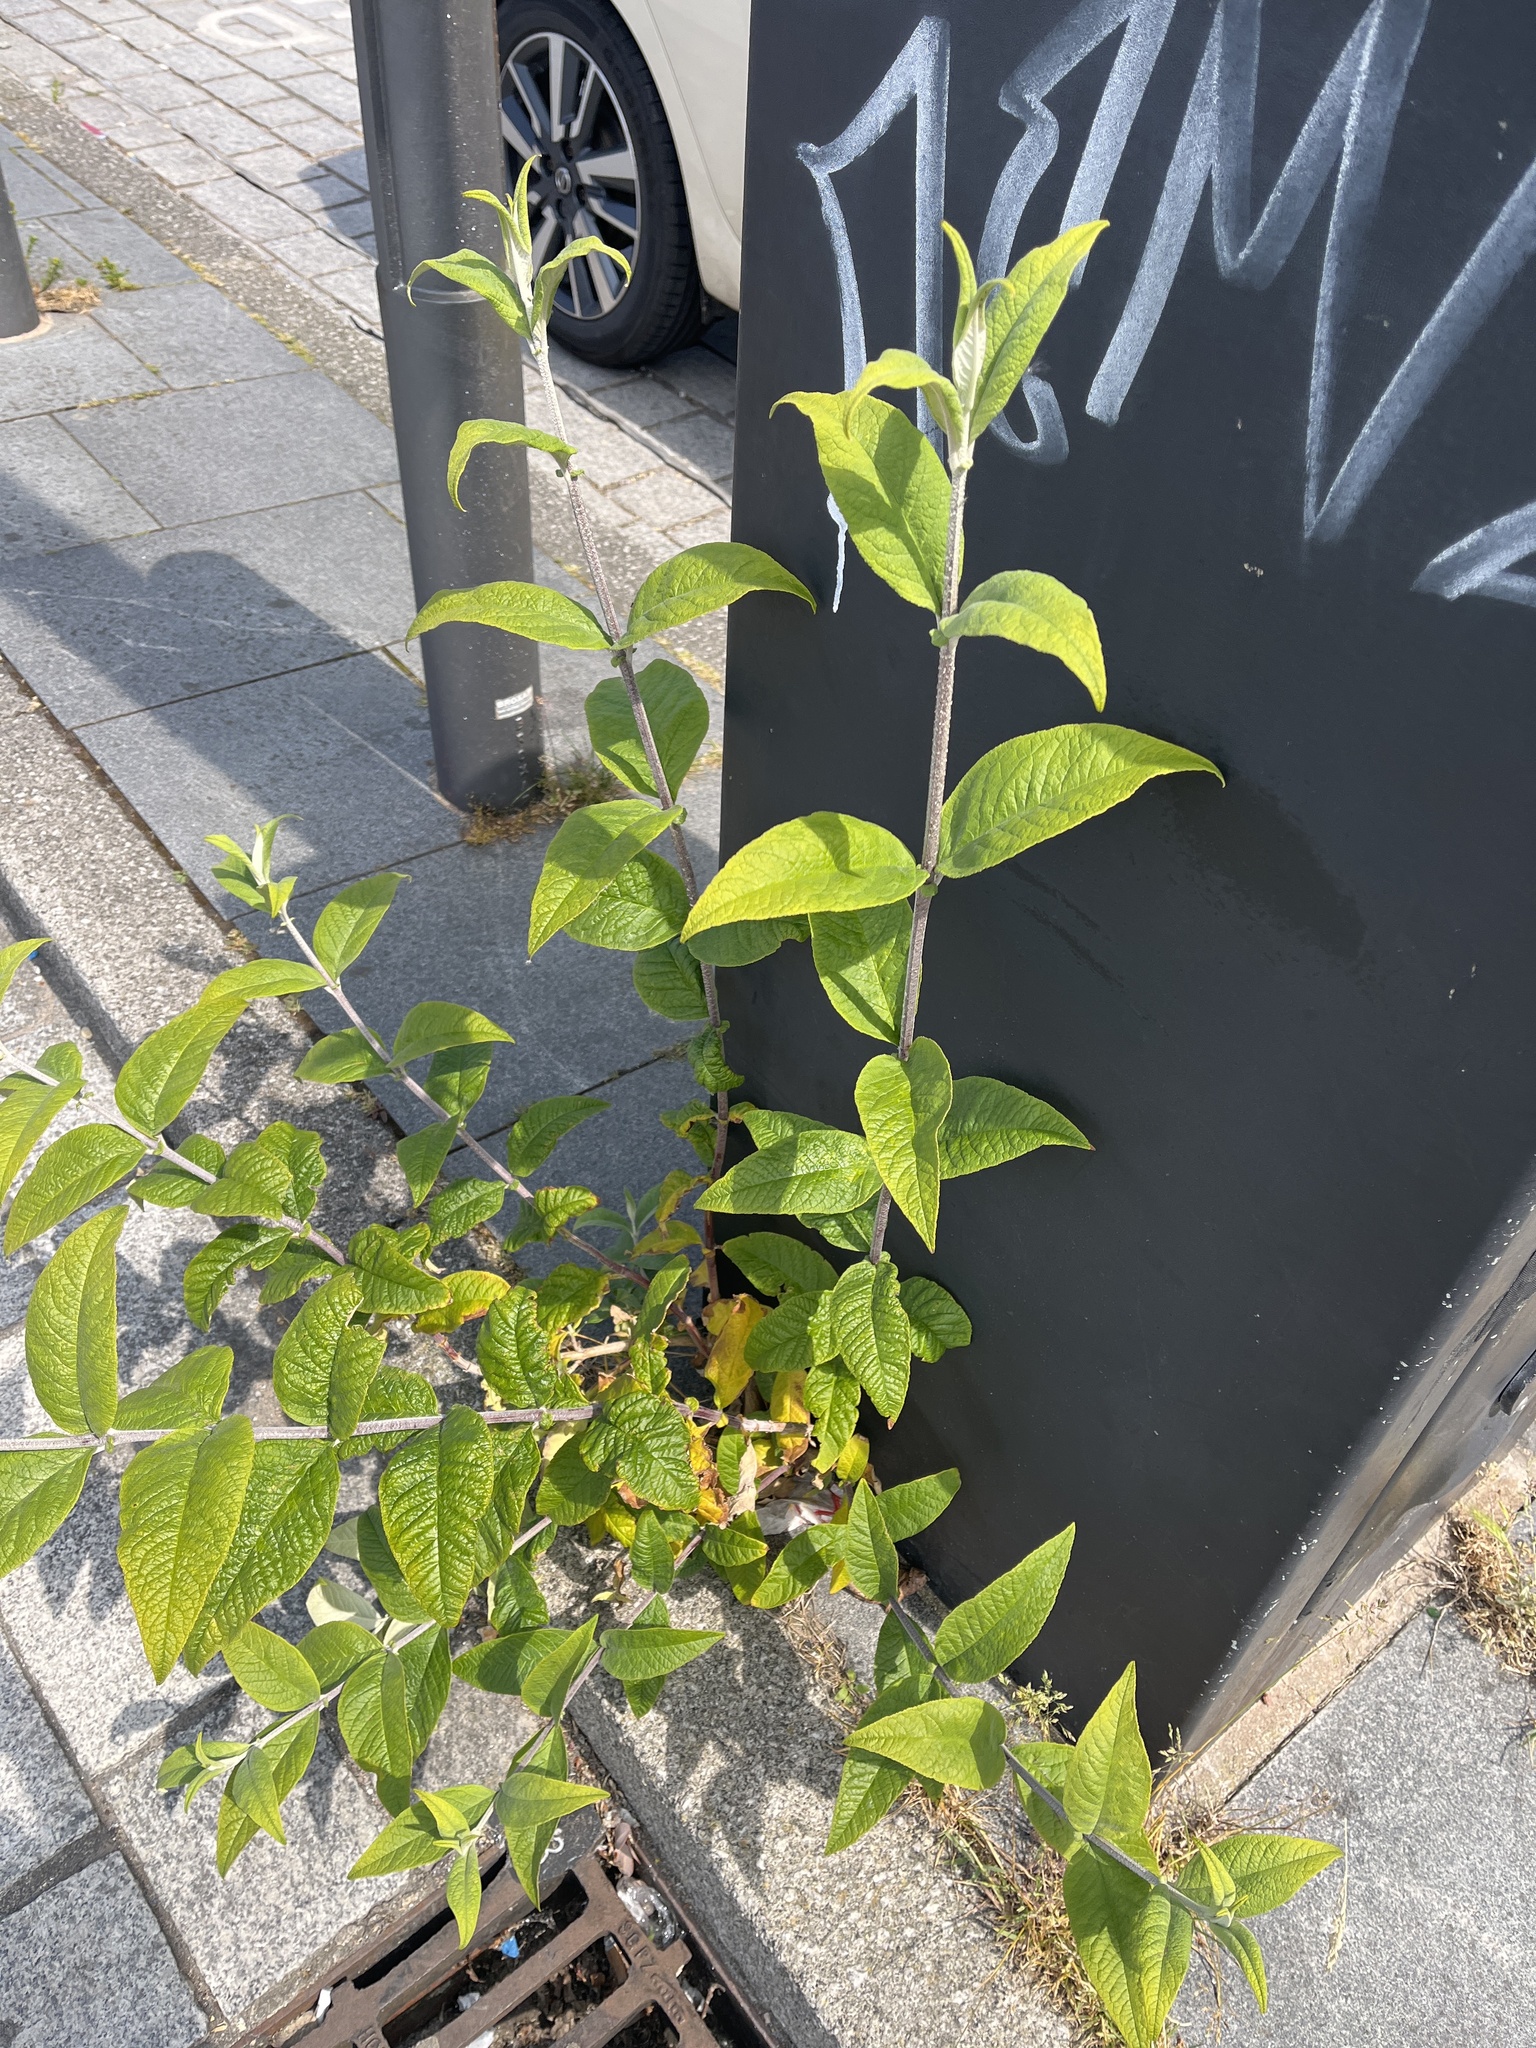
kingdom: Plantae
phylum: Tracheophyta
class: Magnoliopsida
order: Lamiales
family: Scrophulariaceae
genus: Buddleja
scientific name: Buddleja davidii
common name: Butterfly-bush
